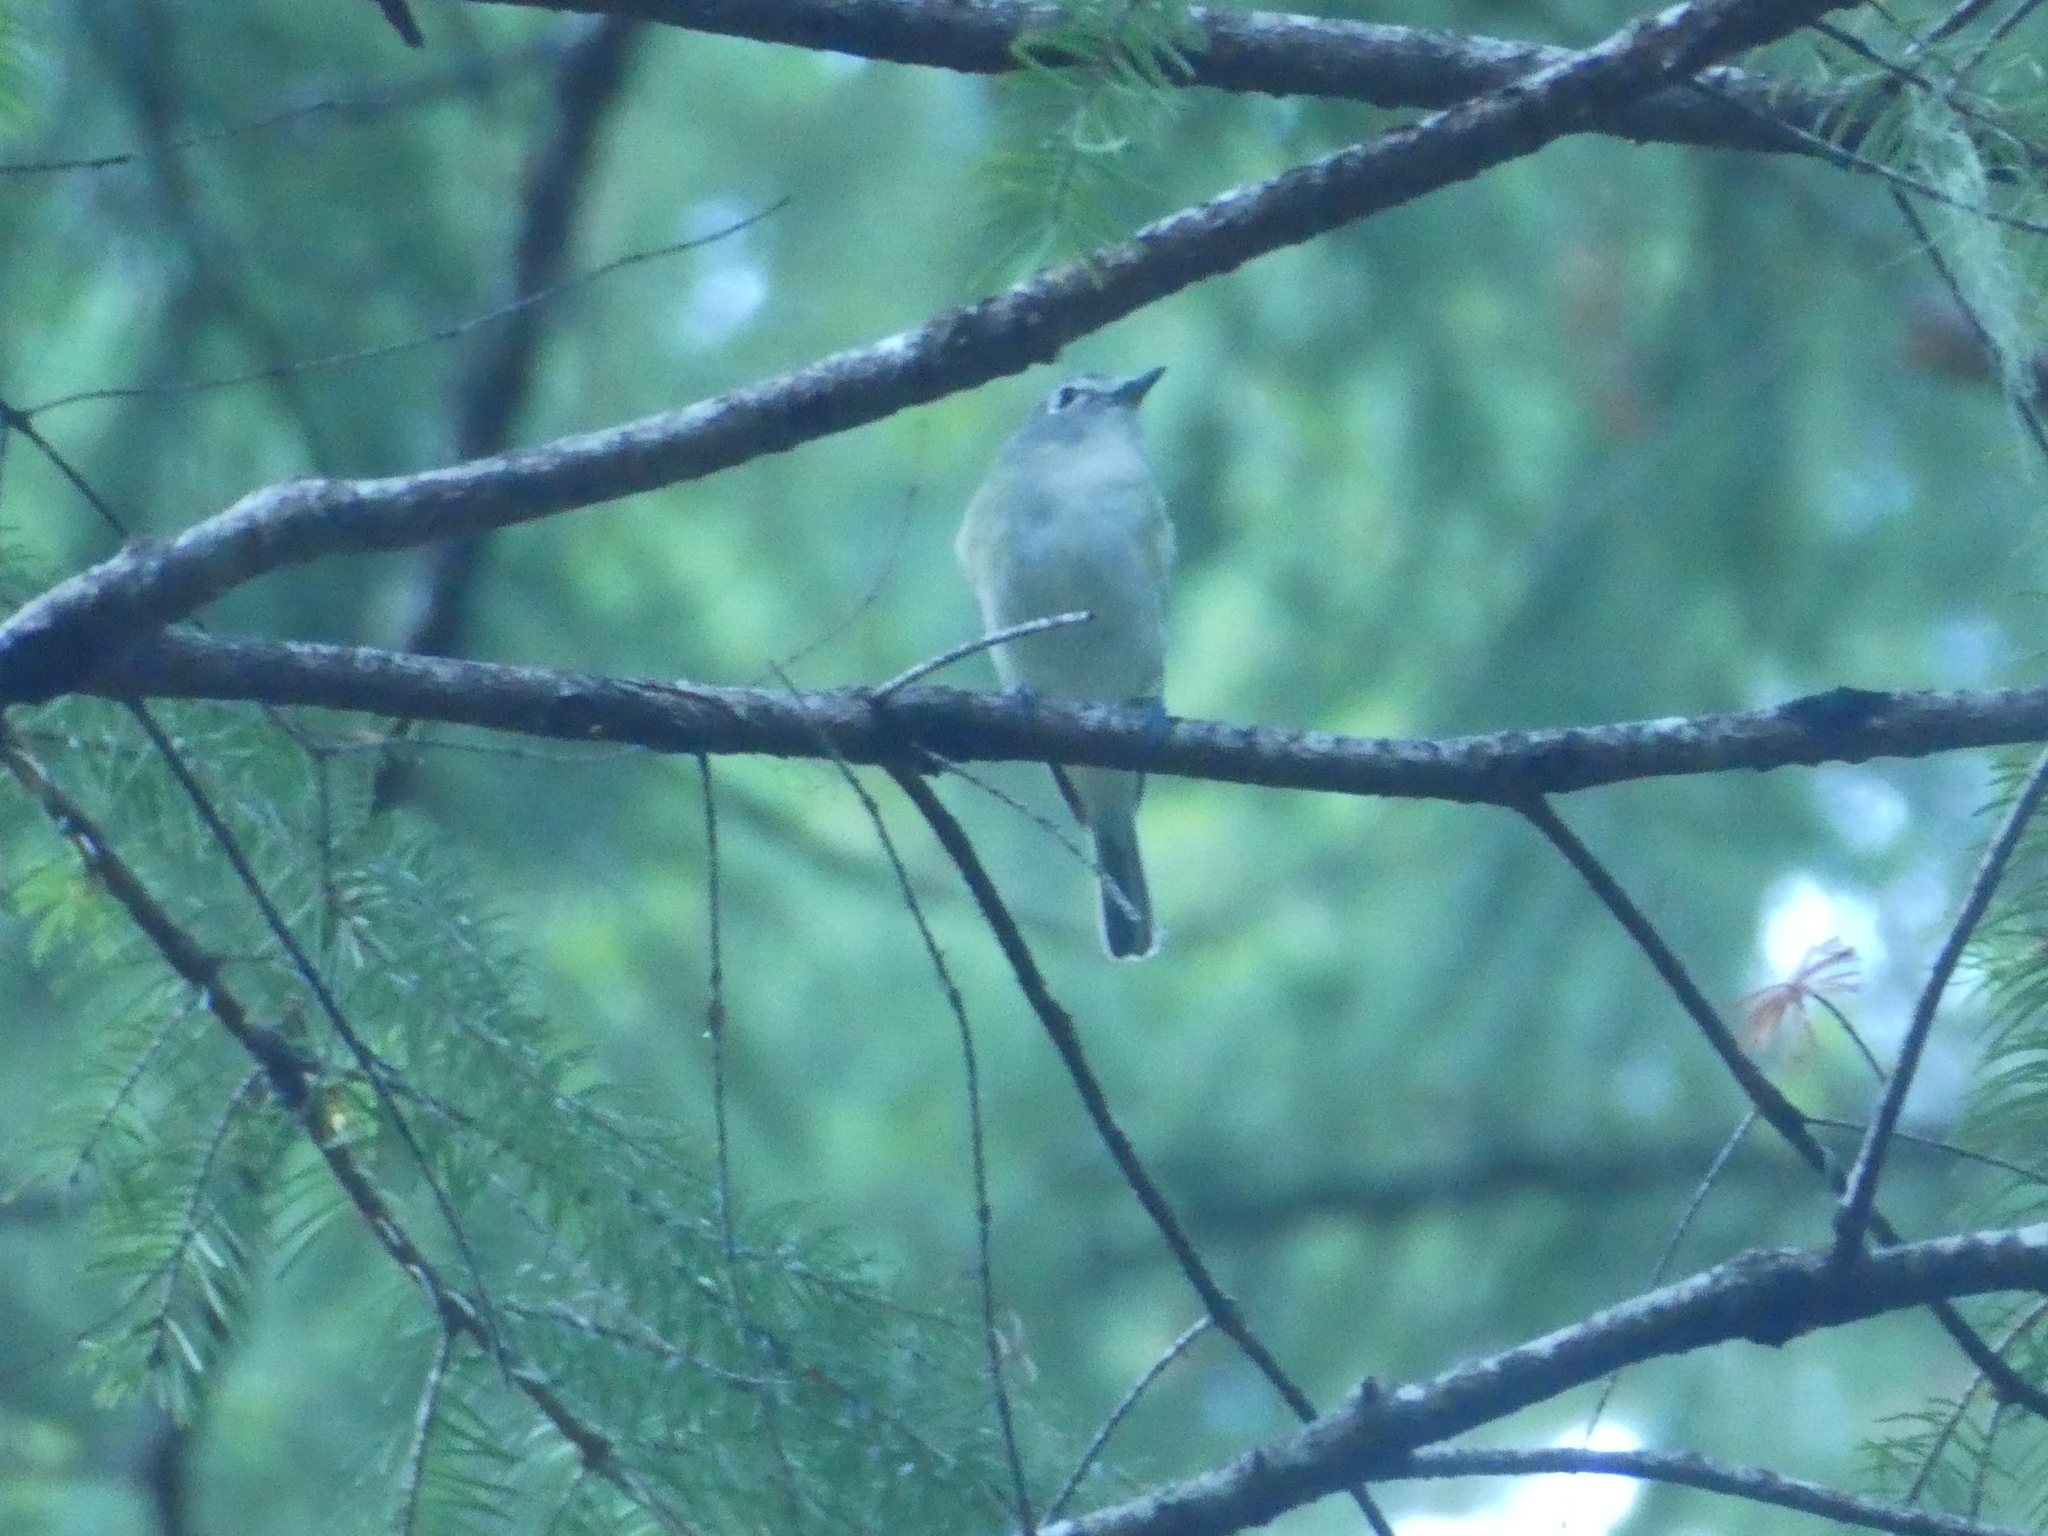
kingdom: Animalia
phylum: Chordata
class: Aves
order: Passeriformes
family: Vireonidae
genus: Vireo
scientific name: Vireo cassinii
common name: Cassin's vireo
